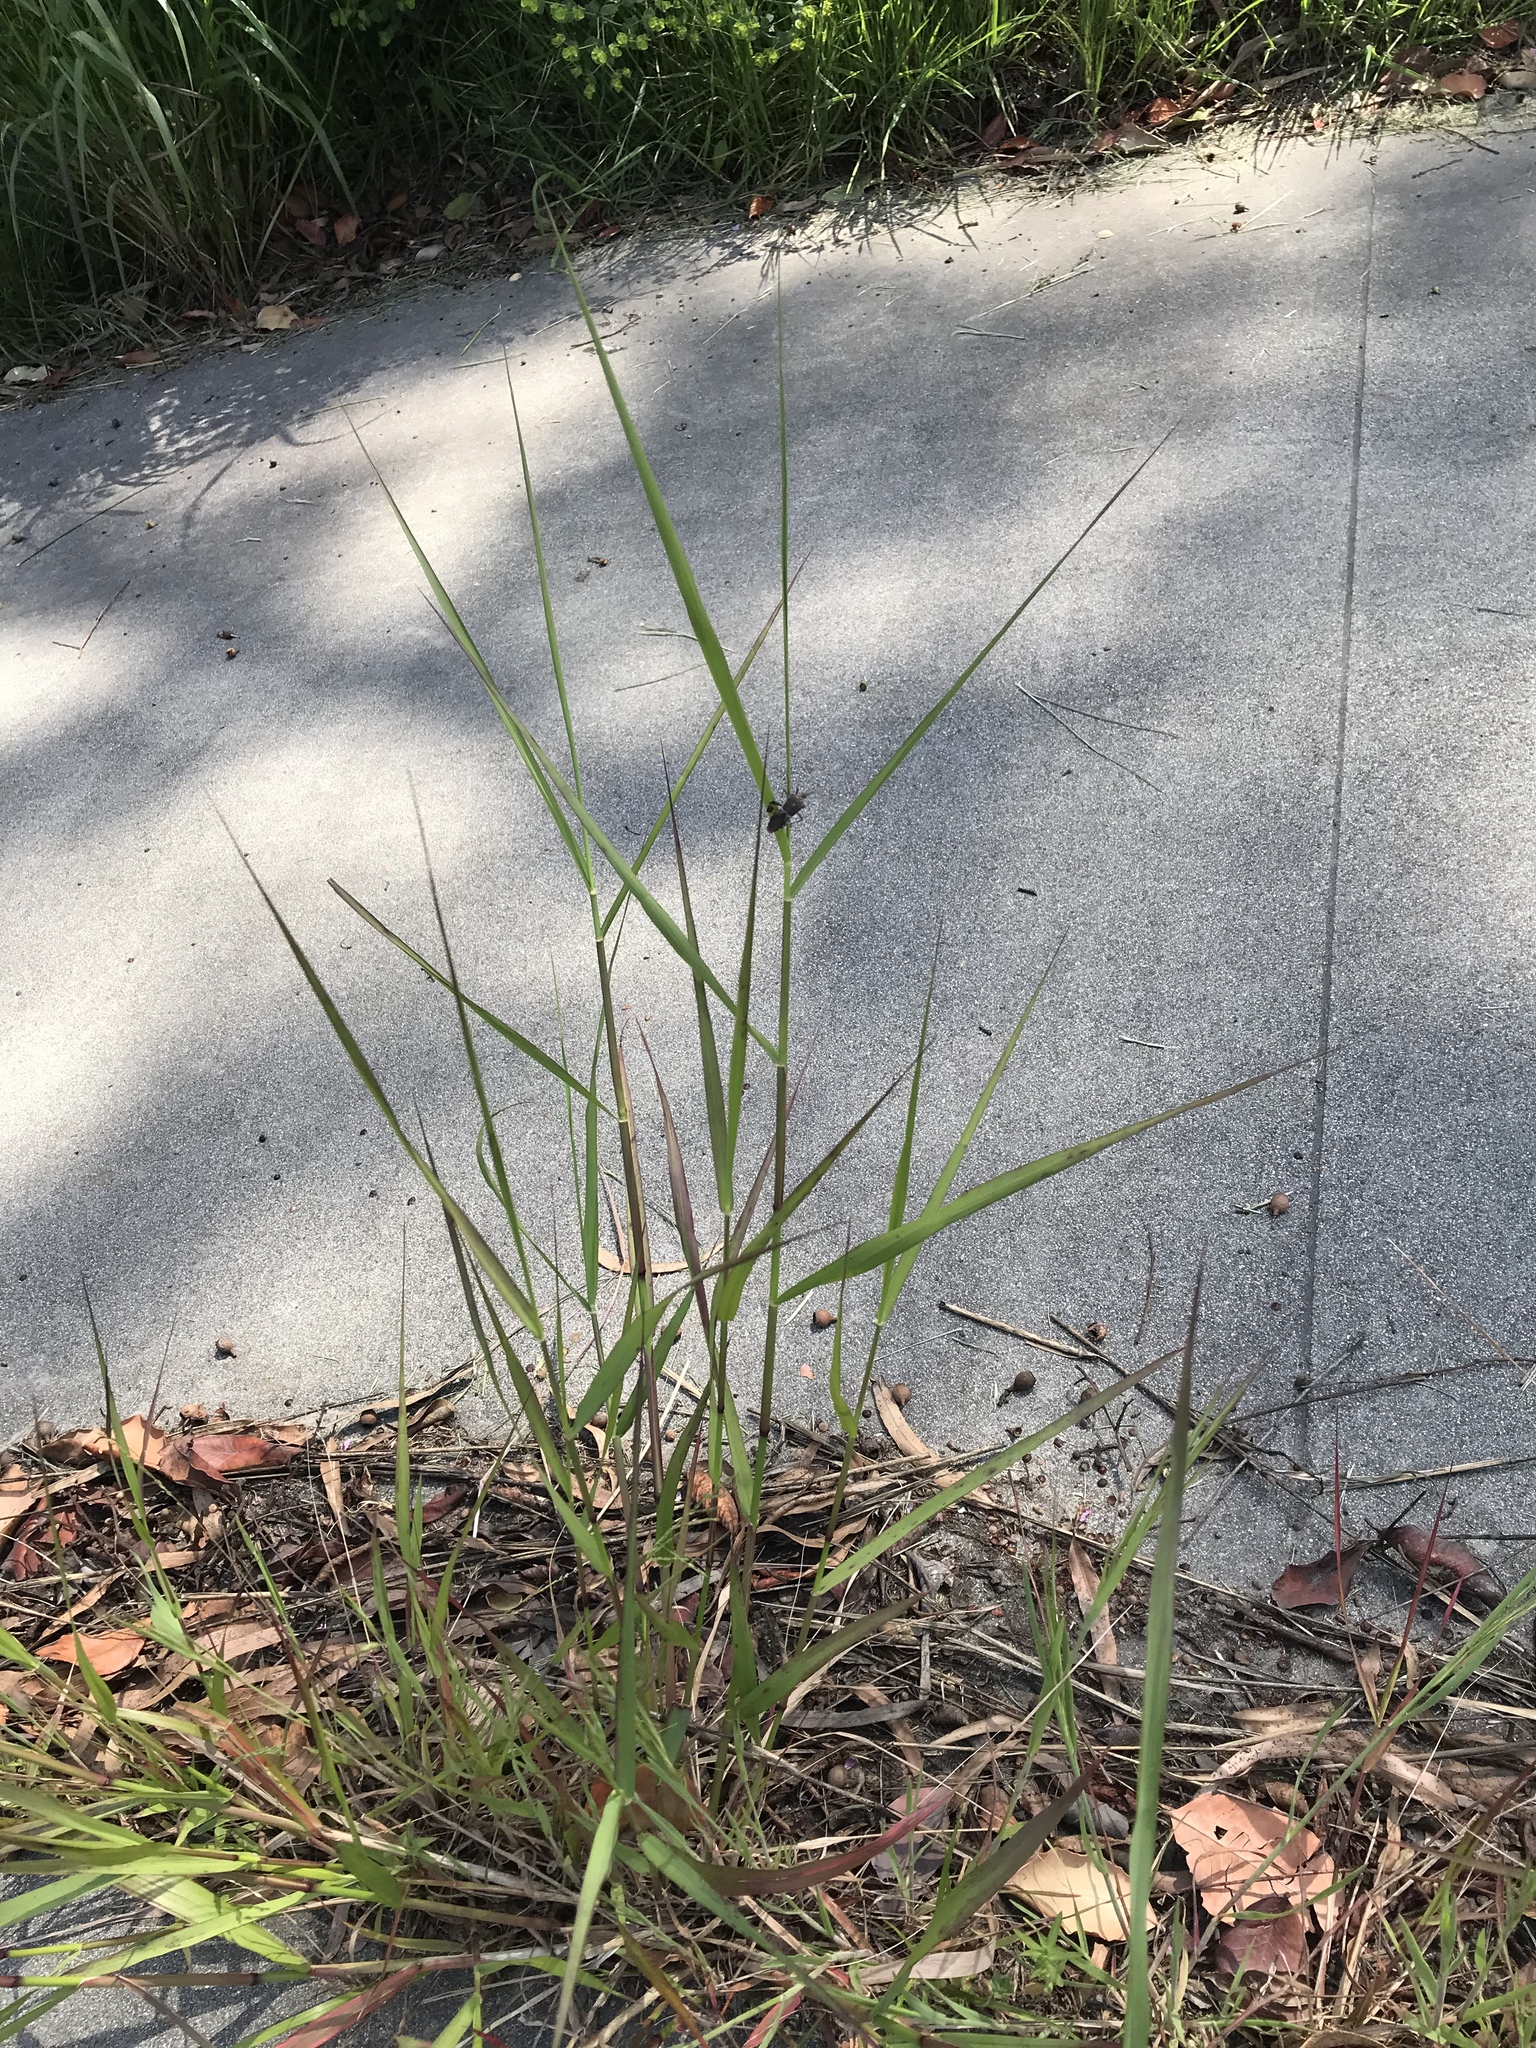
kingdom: Animalia
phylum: Arthropoda
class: Insecta
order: Hemiptera
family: Coreidae
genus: Leptoglossus
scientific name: Leptoglossus zonatus
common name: Large-legged bug
